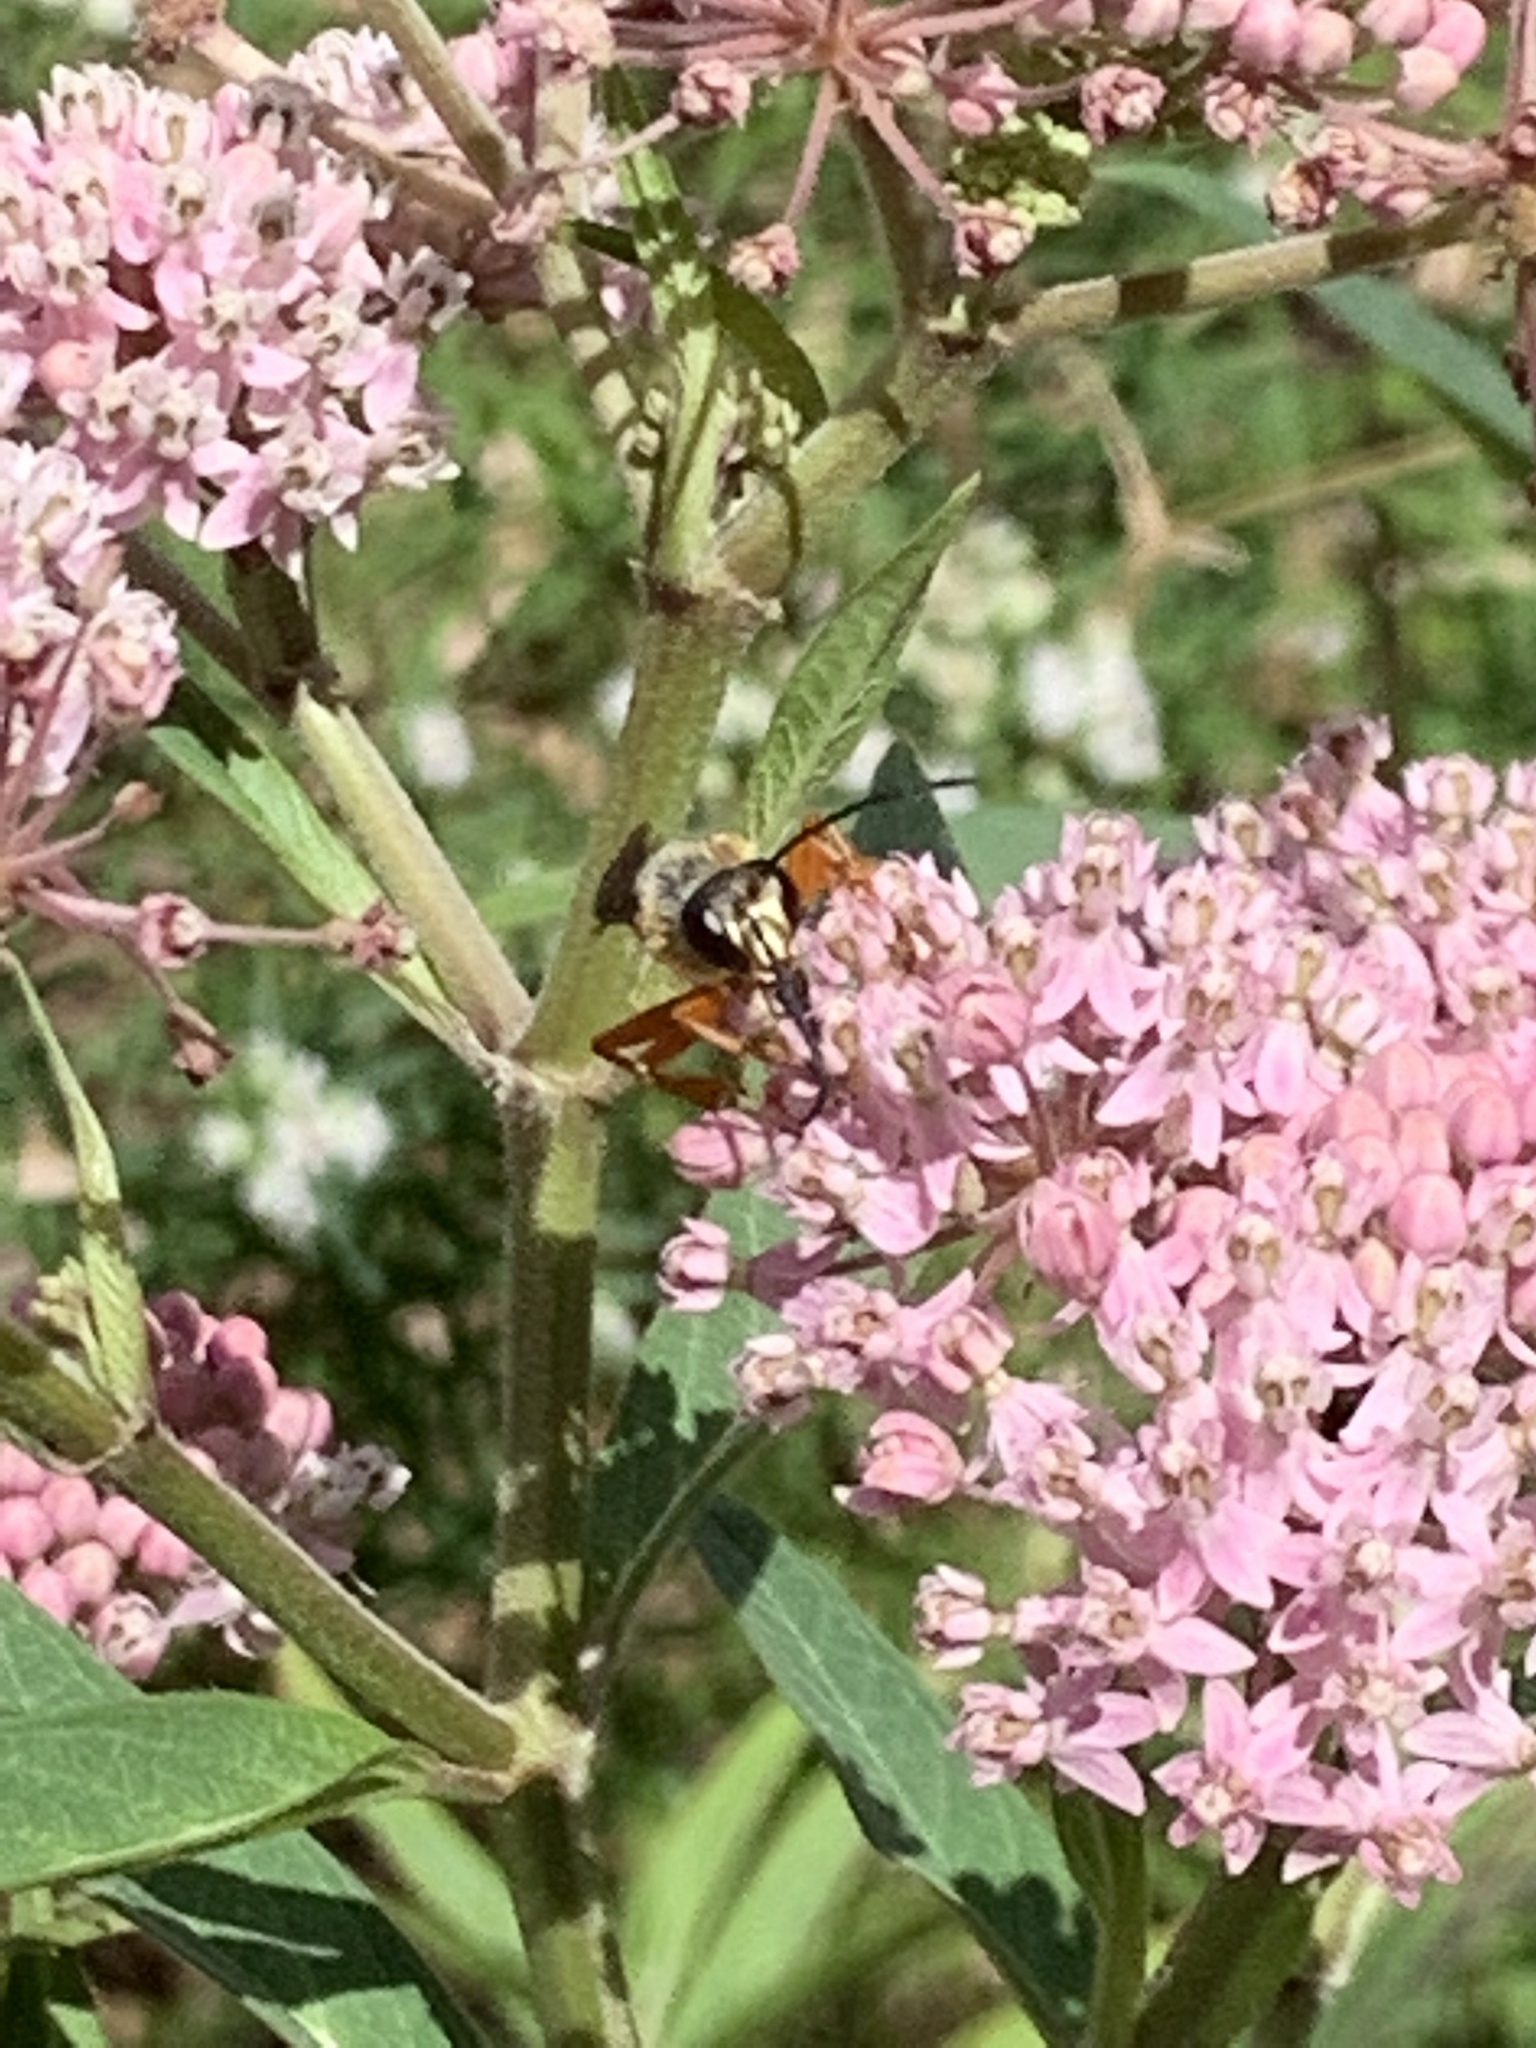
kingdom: Animalia
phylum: Arthropoda
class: Insecta
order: Hymenoptera
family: Sphecidae
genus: Sphex
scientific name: Sphex ichneumoneus
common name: Great golden digger wasp
